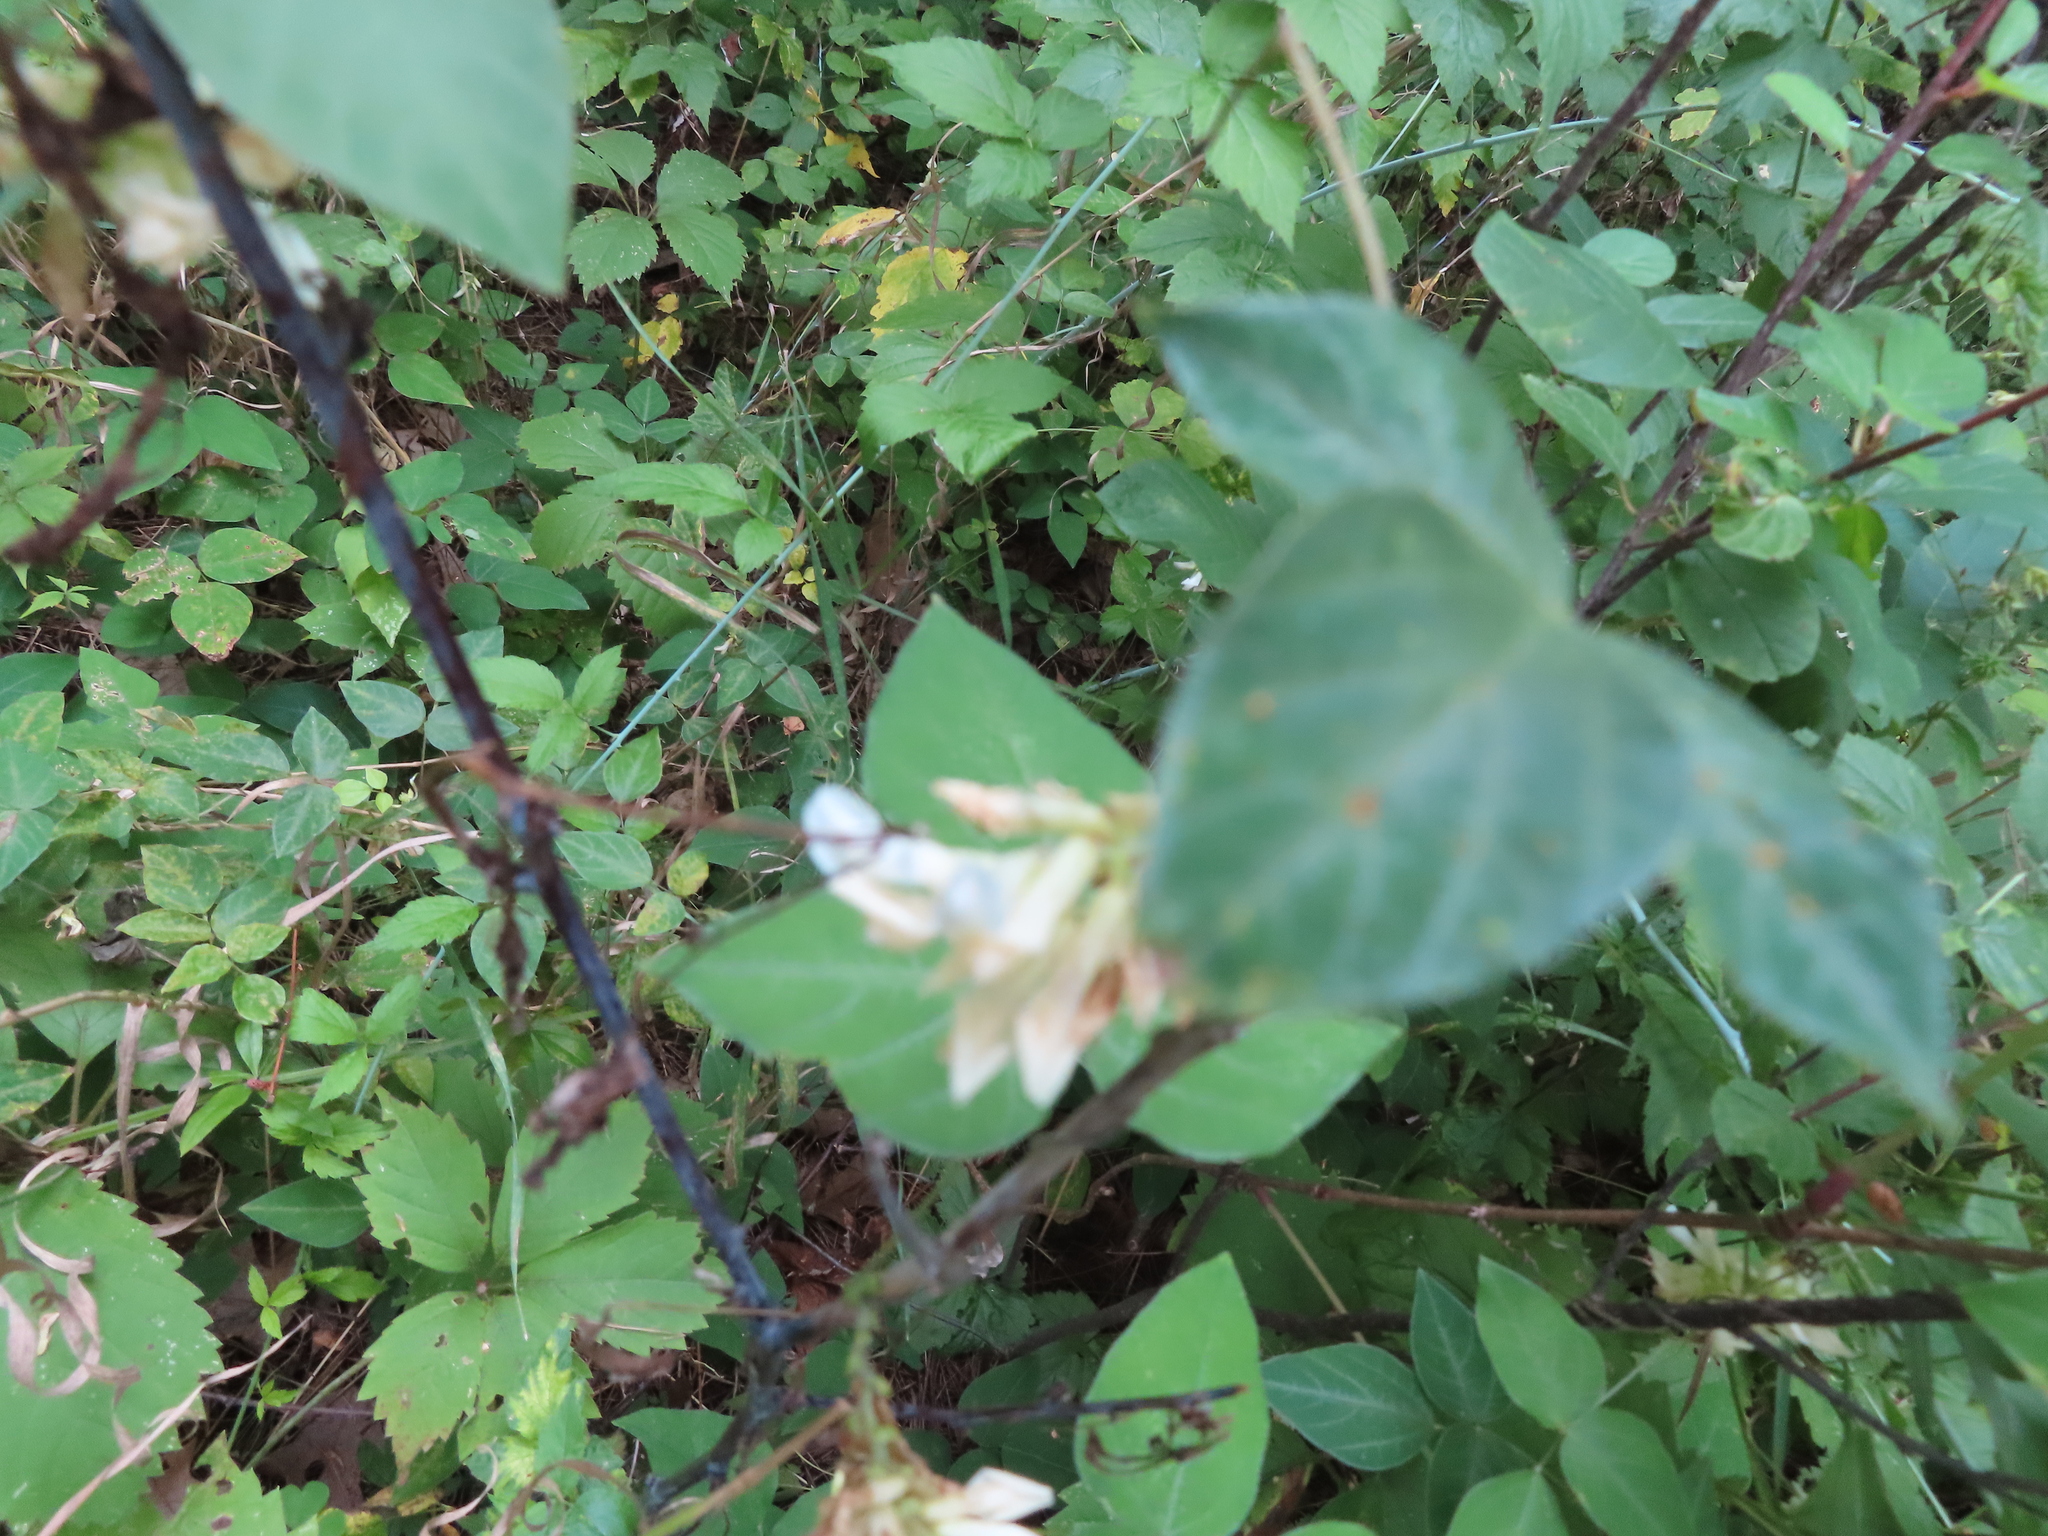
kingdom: Plantae
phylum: Tracheophyta
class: Magnoliopsida
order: Fabales
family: Fabaceae
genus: Amphicarpaea
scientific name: Amphicarpaea bracteata
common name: American hog peanut
